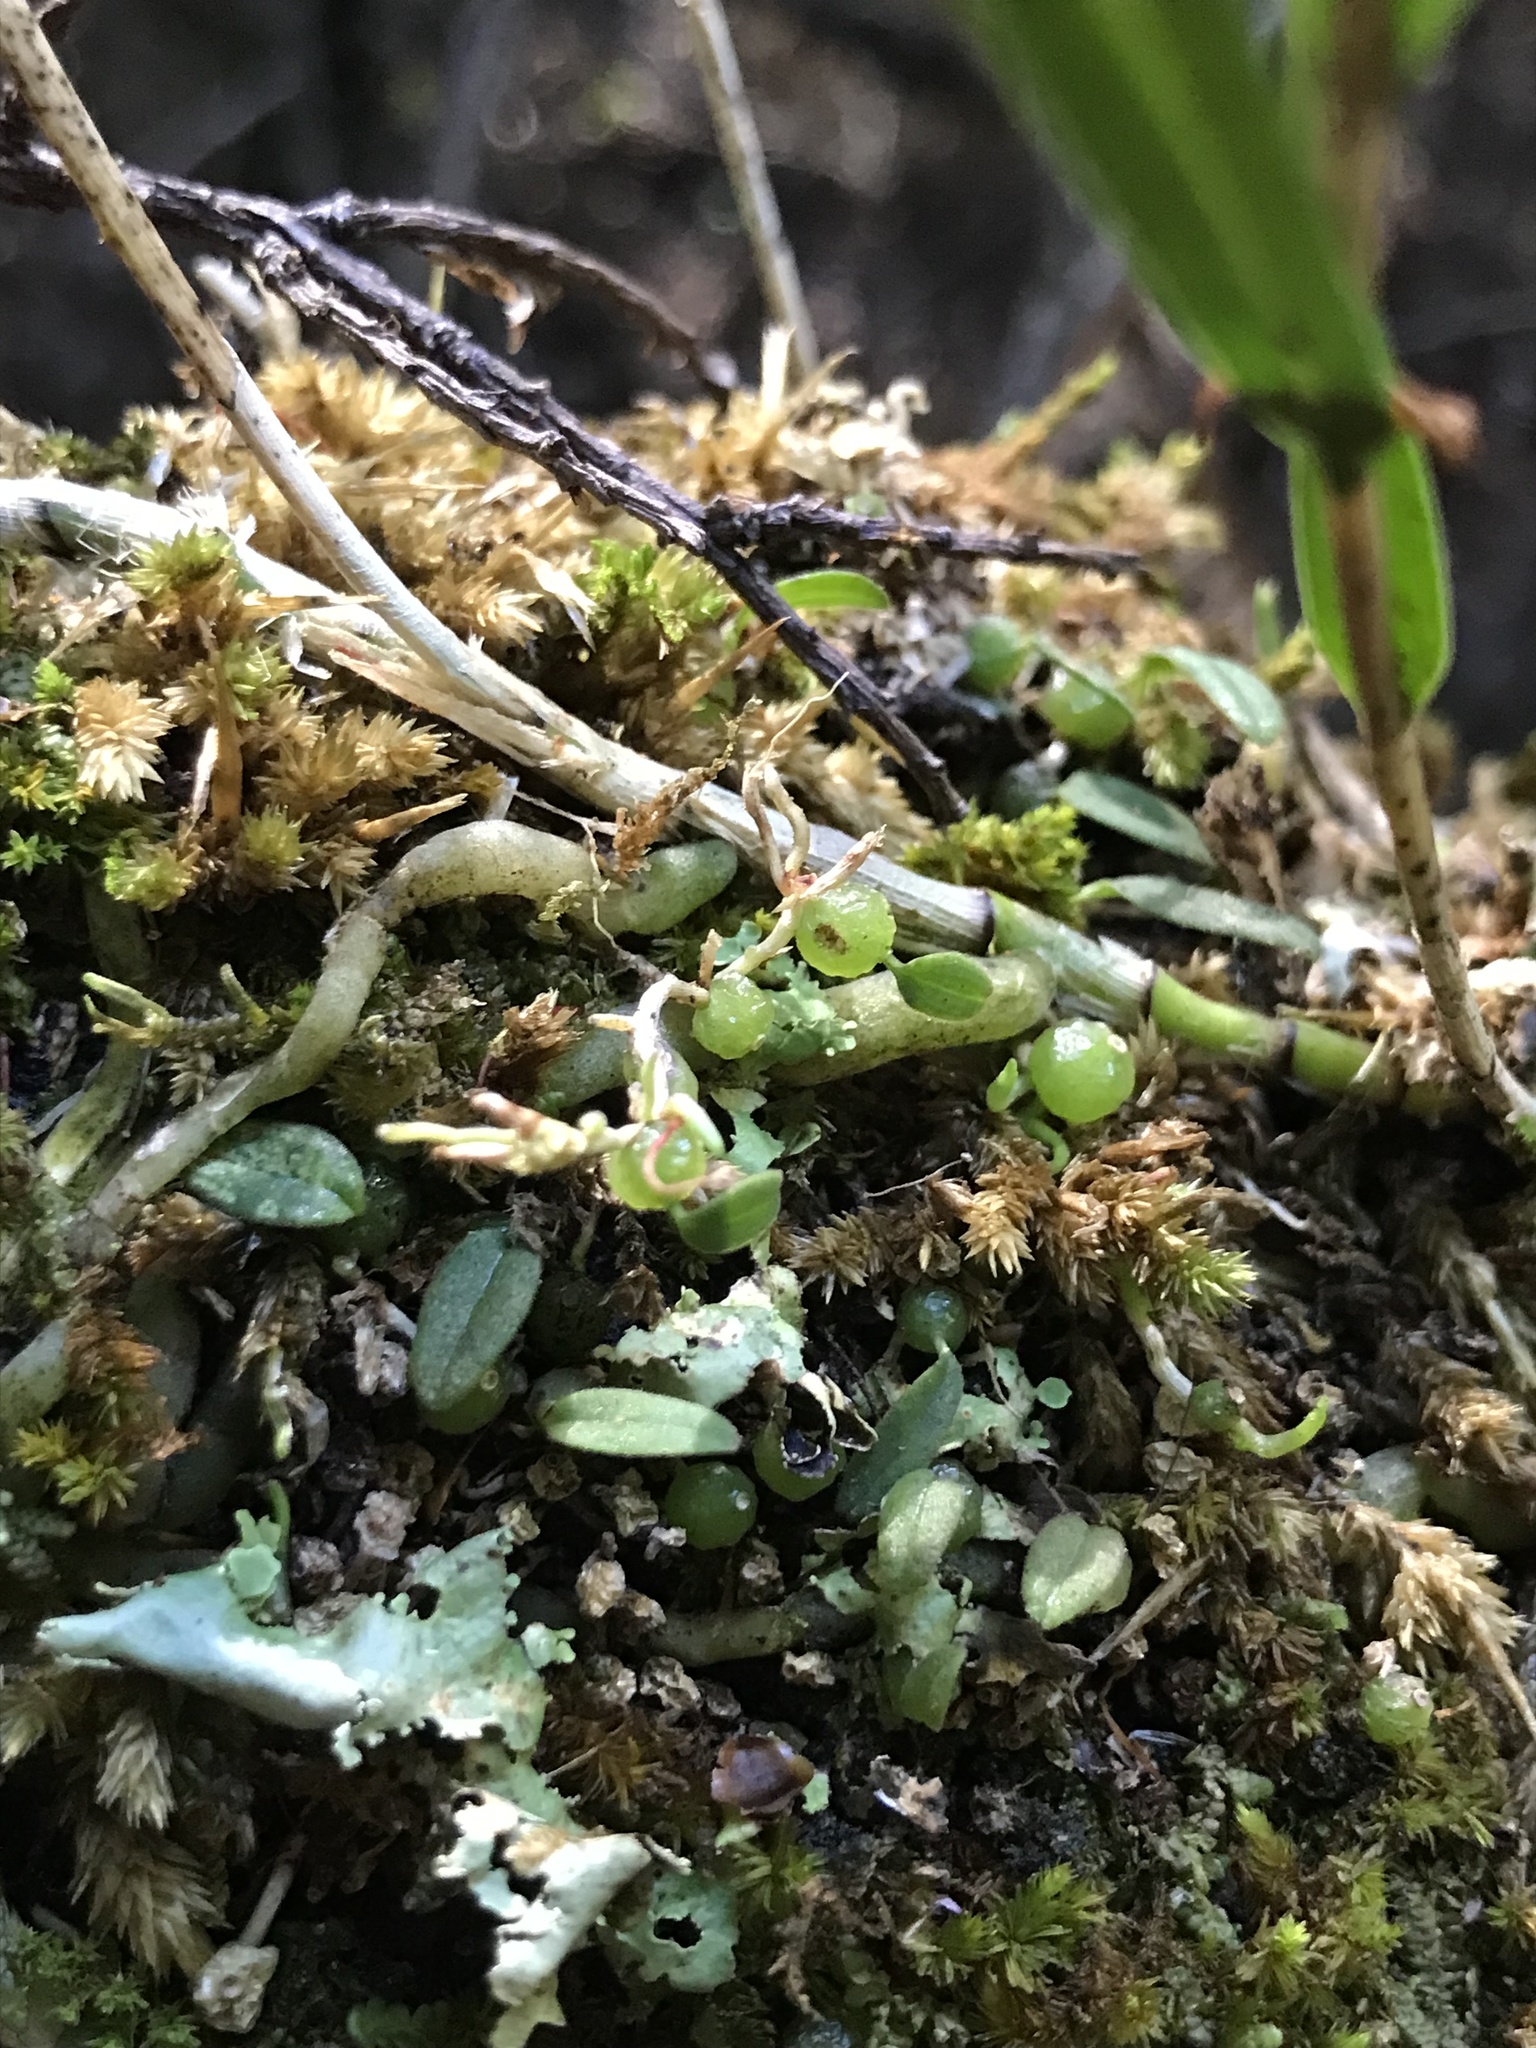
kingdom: Plantae
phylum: Tracheophyta
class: Liliopsida
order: Asparagales
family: Orchidaceae
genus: Bulbophyllum
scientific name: Bulbophyllum pygmaeum
